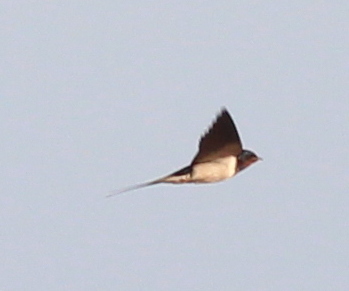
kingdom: Animalia
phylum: Chordata
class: Aves
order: Passeriformes
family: Hirundinidae
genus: Hirundo
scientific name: Hirundo rustica
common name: Barn swallow
